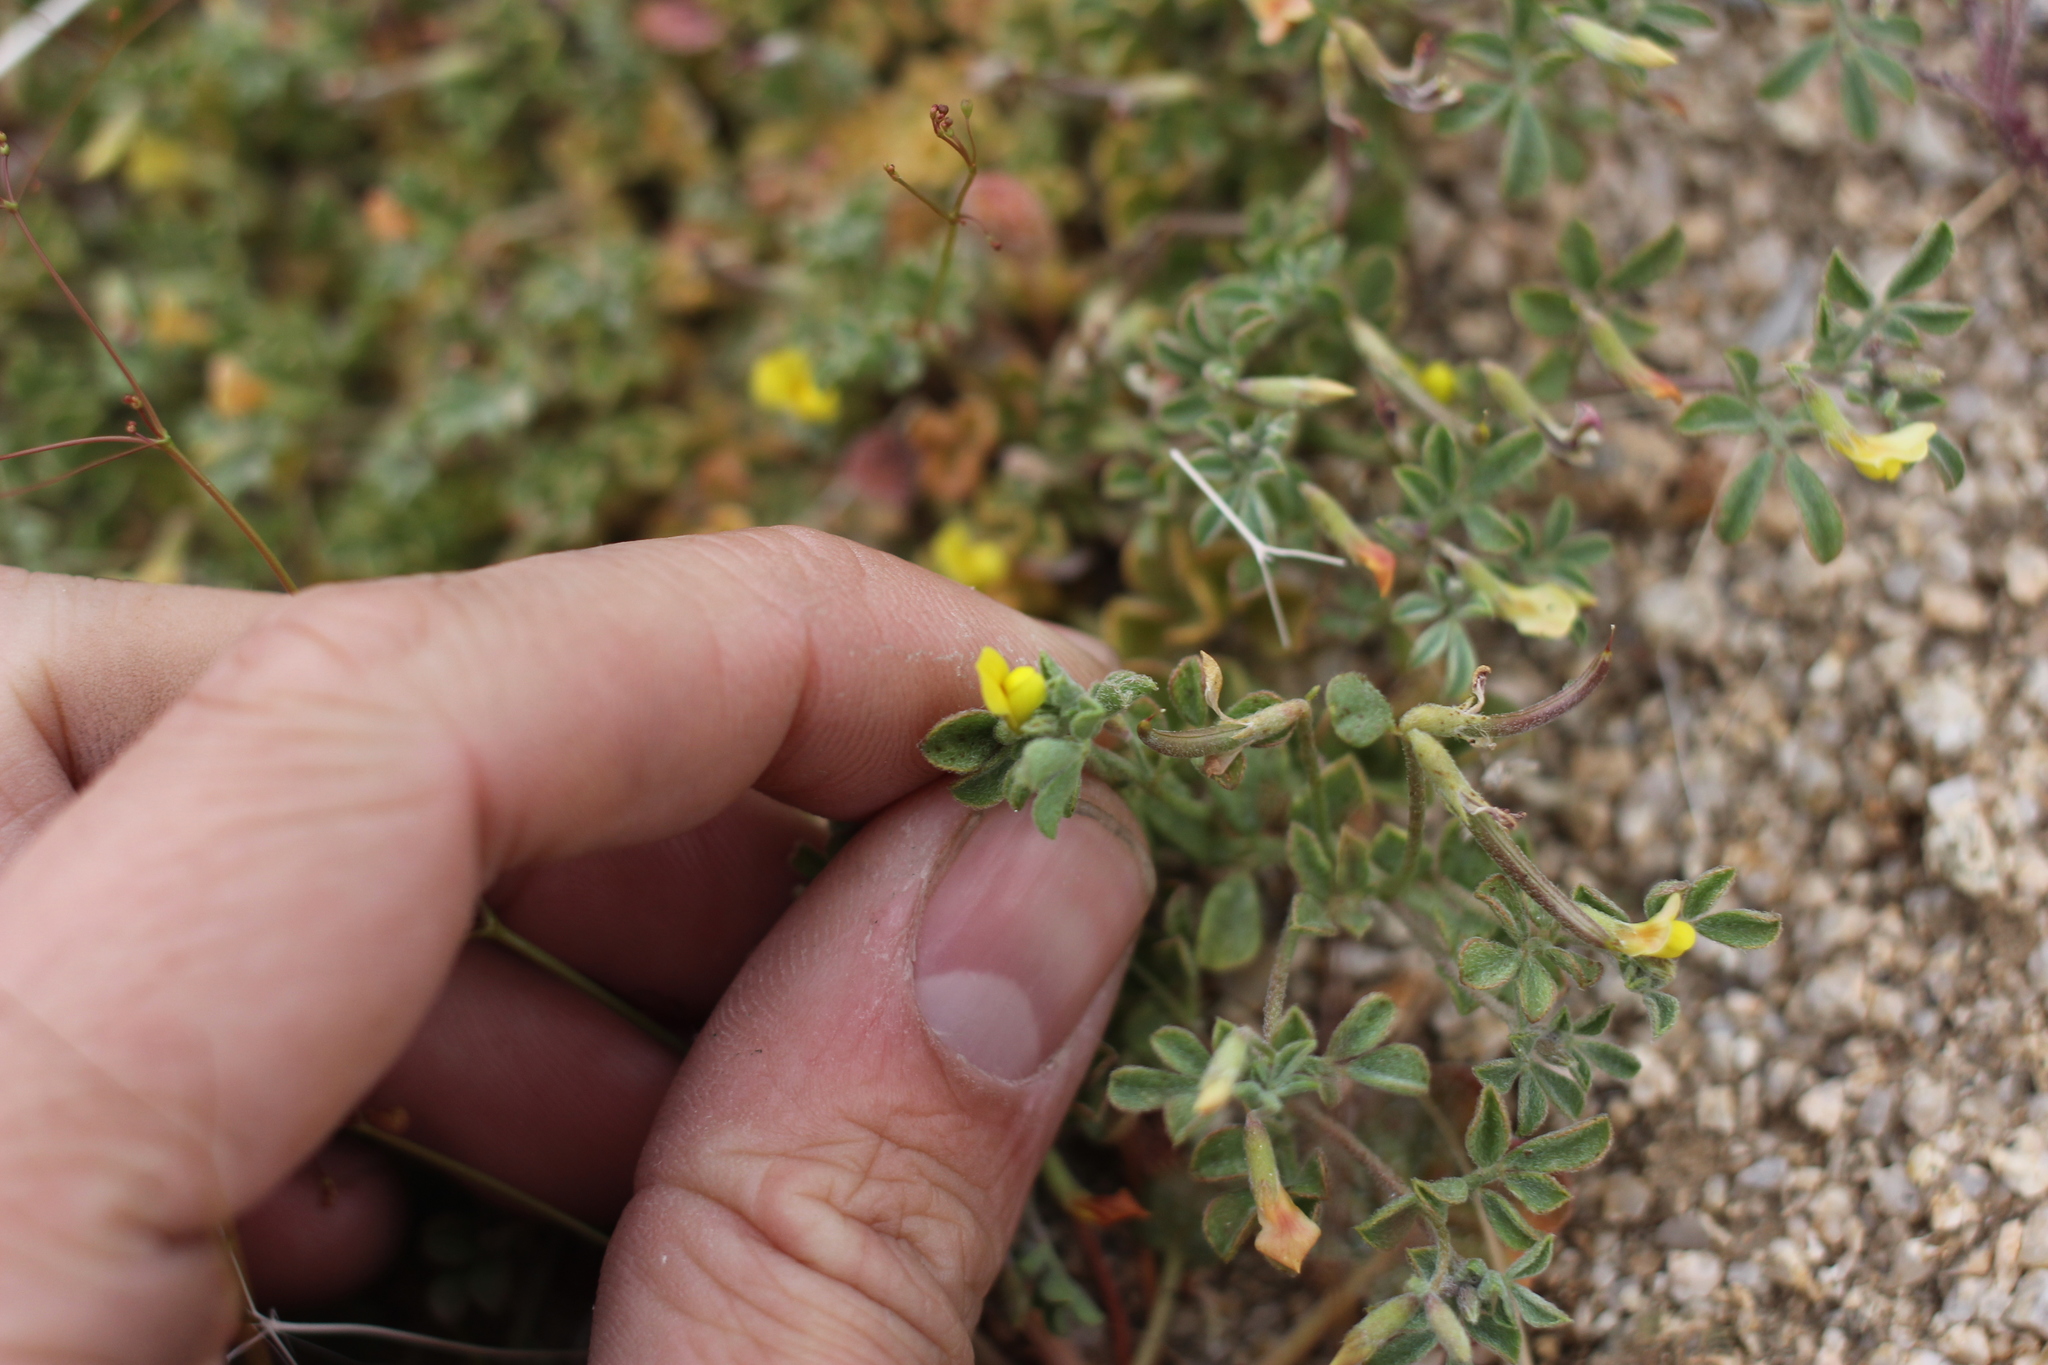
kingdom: Plantae
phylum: Tracheophyta
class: Magnoliopsida
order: Fabales
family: Fabaceae
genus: Acmispon
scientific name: Acmispon strigosus
